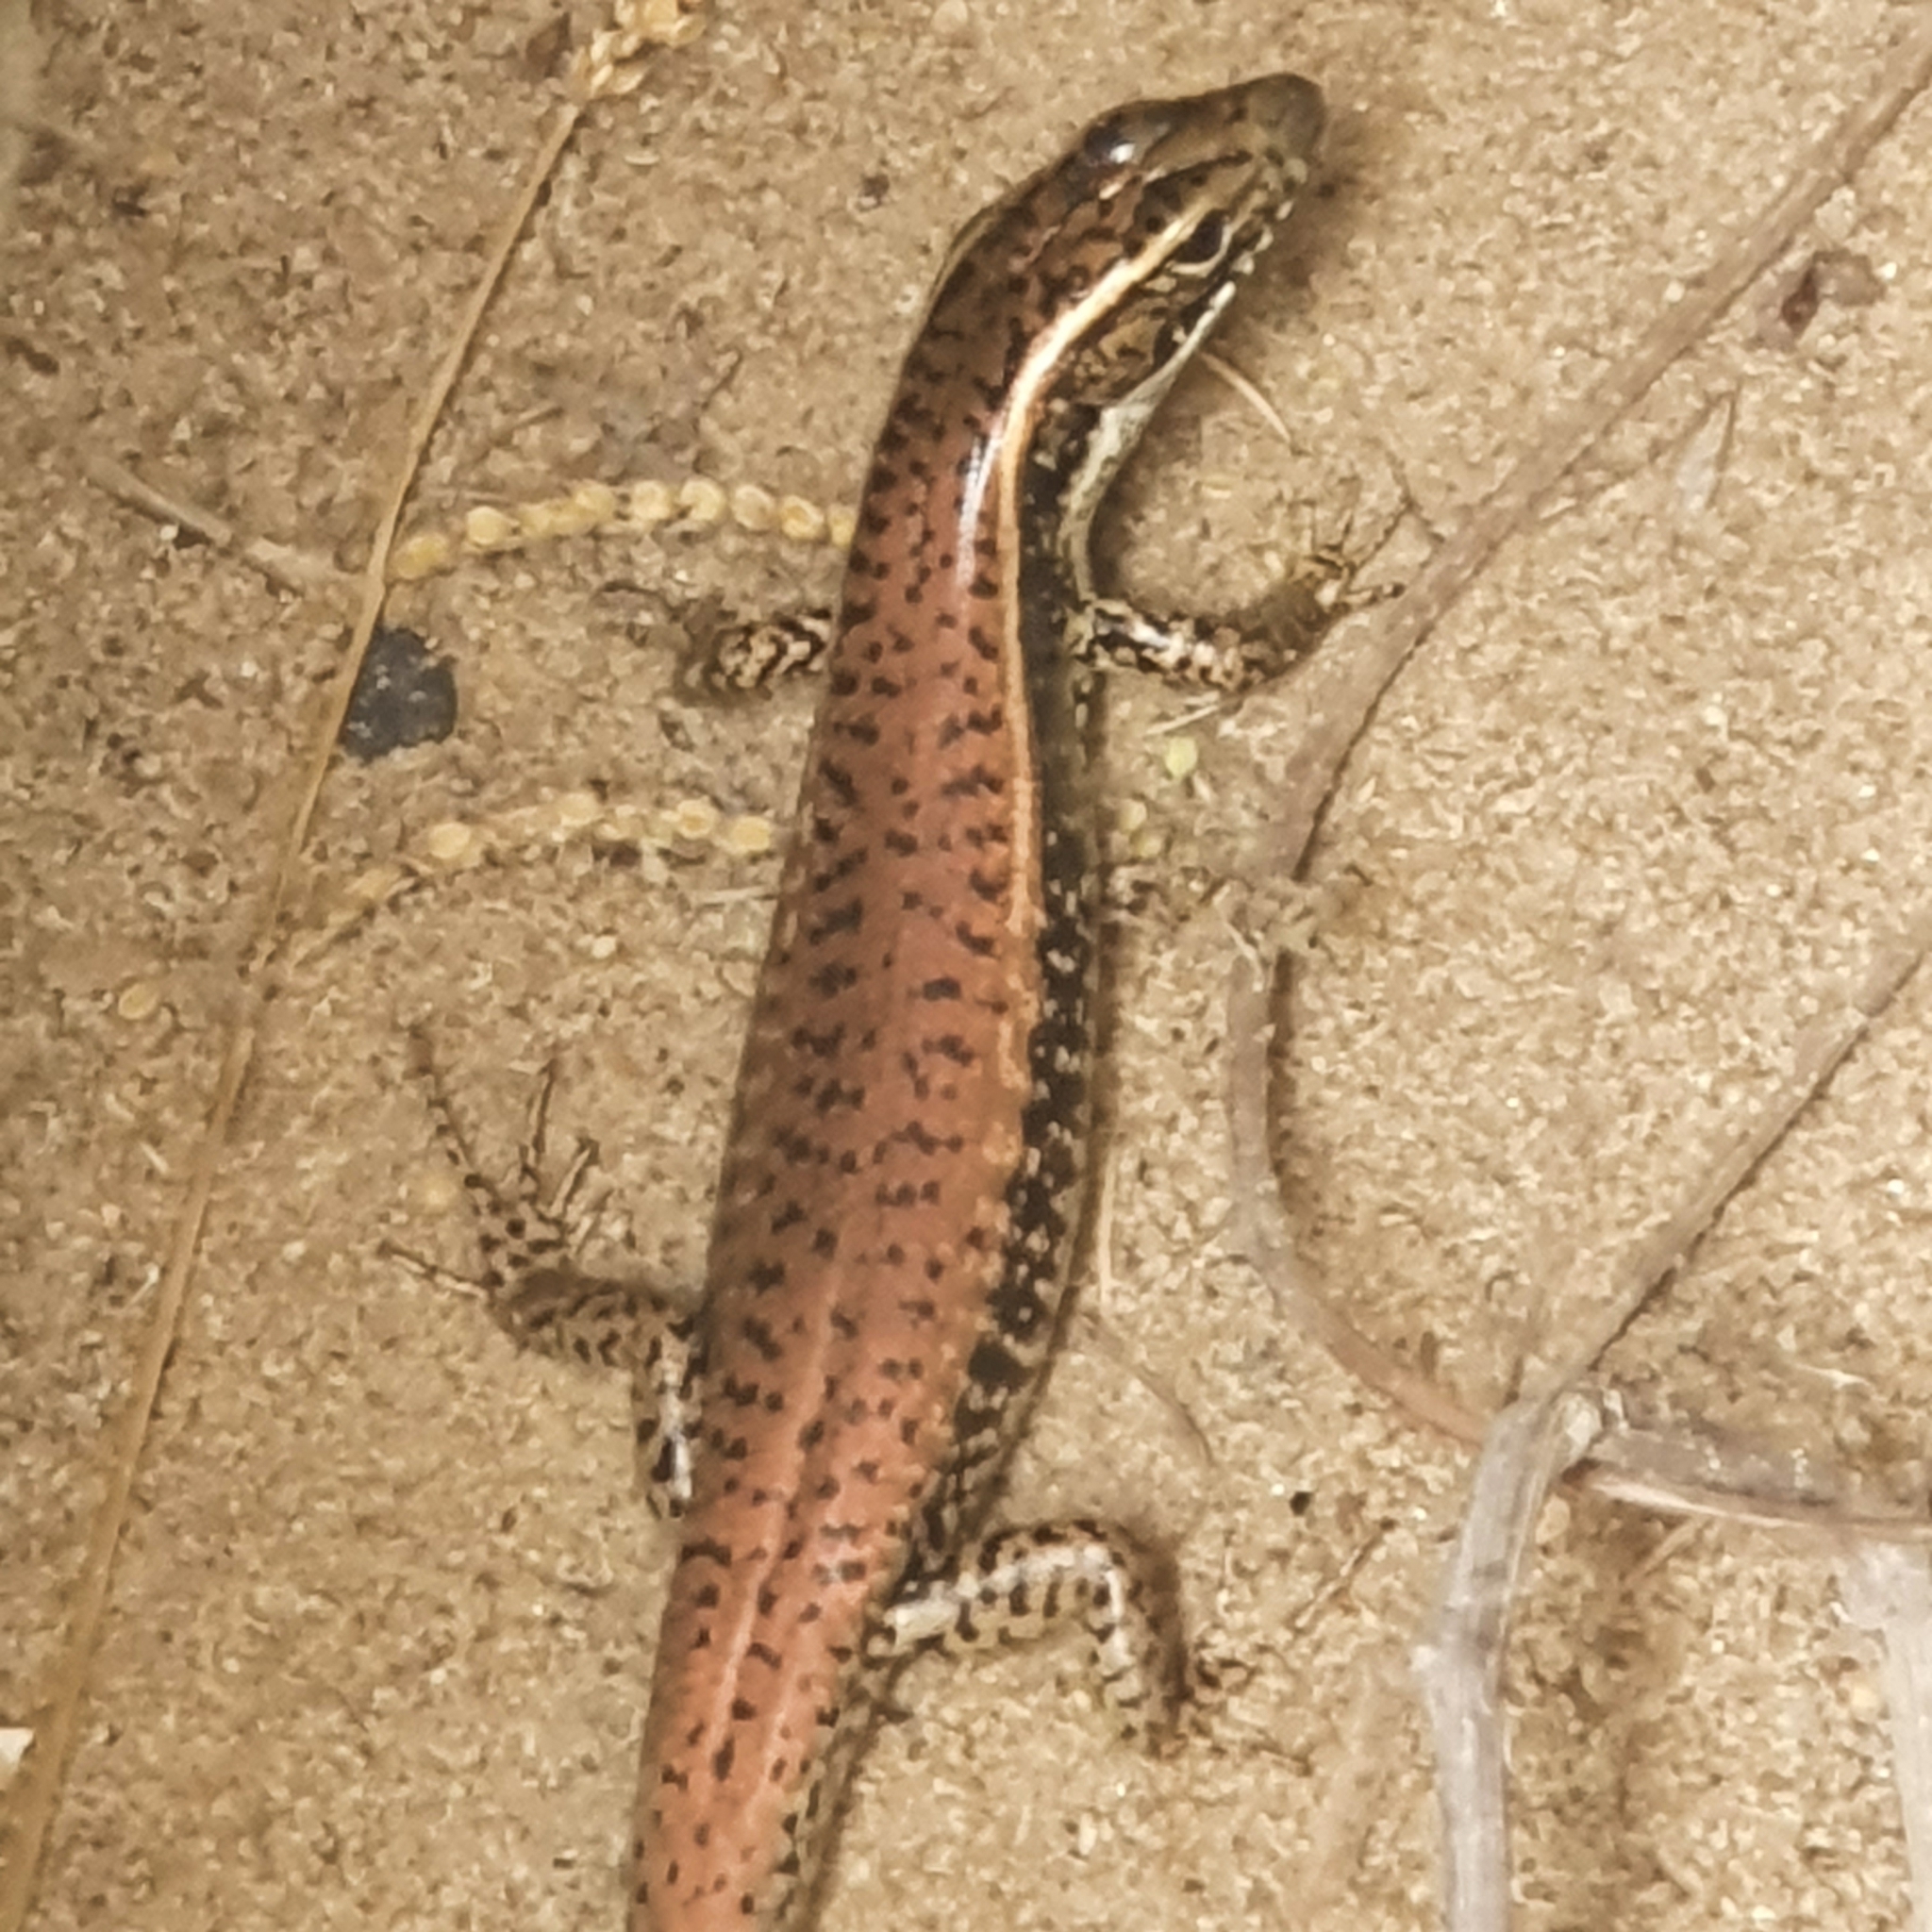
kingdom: Animalia
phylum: Chordata
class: Squamata
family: Scincidae
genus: Eulamprus
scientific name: Eulamprus quoyii
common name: Eastern water skink
